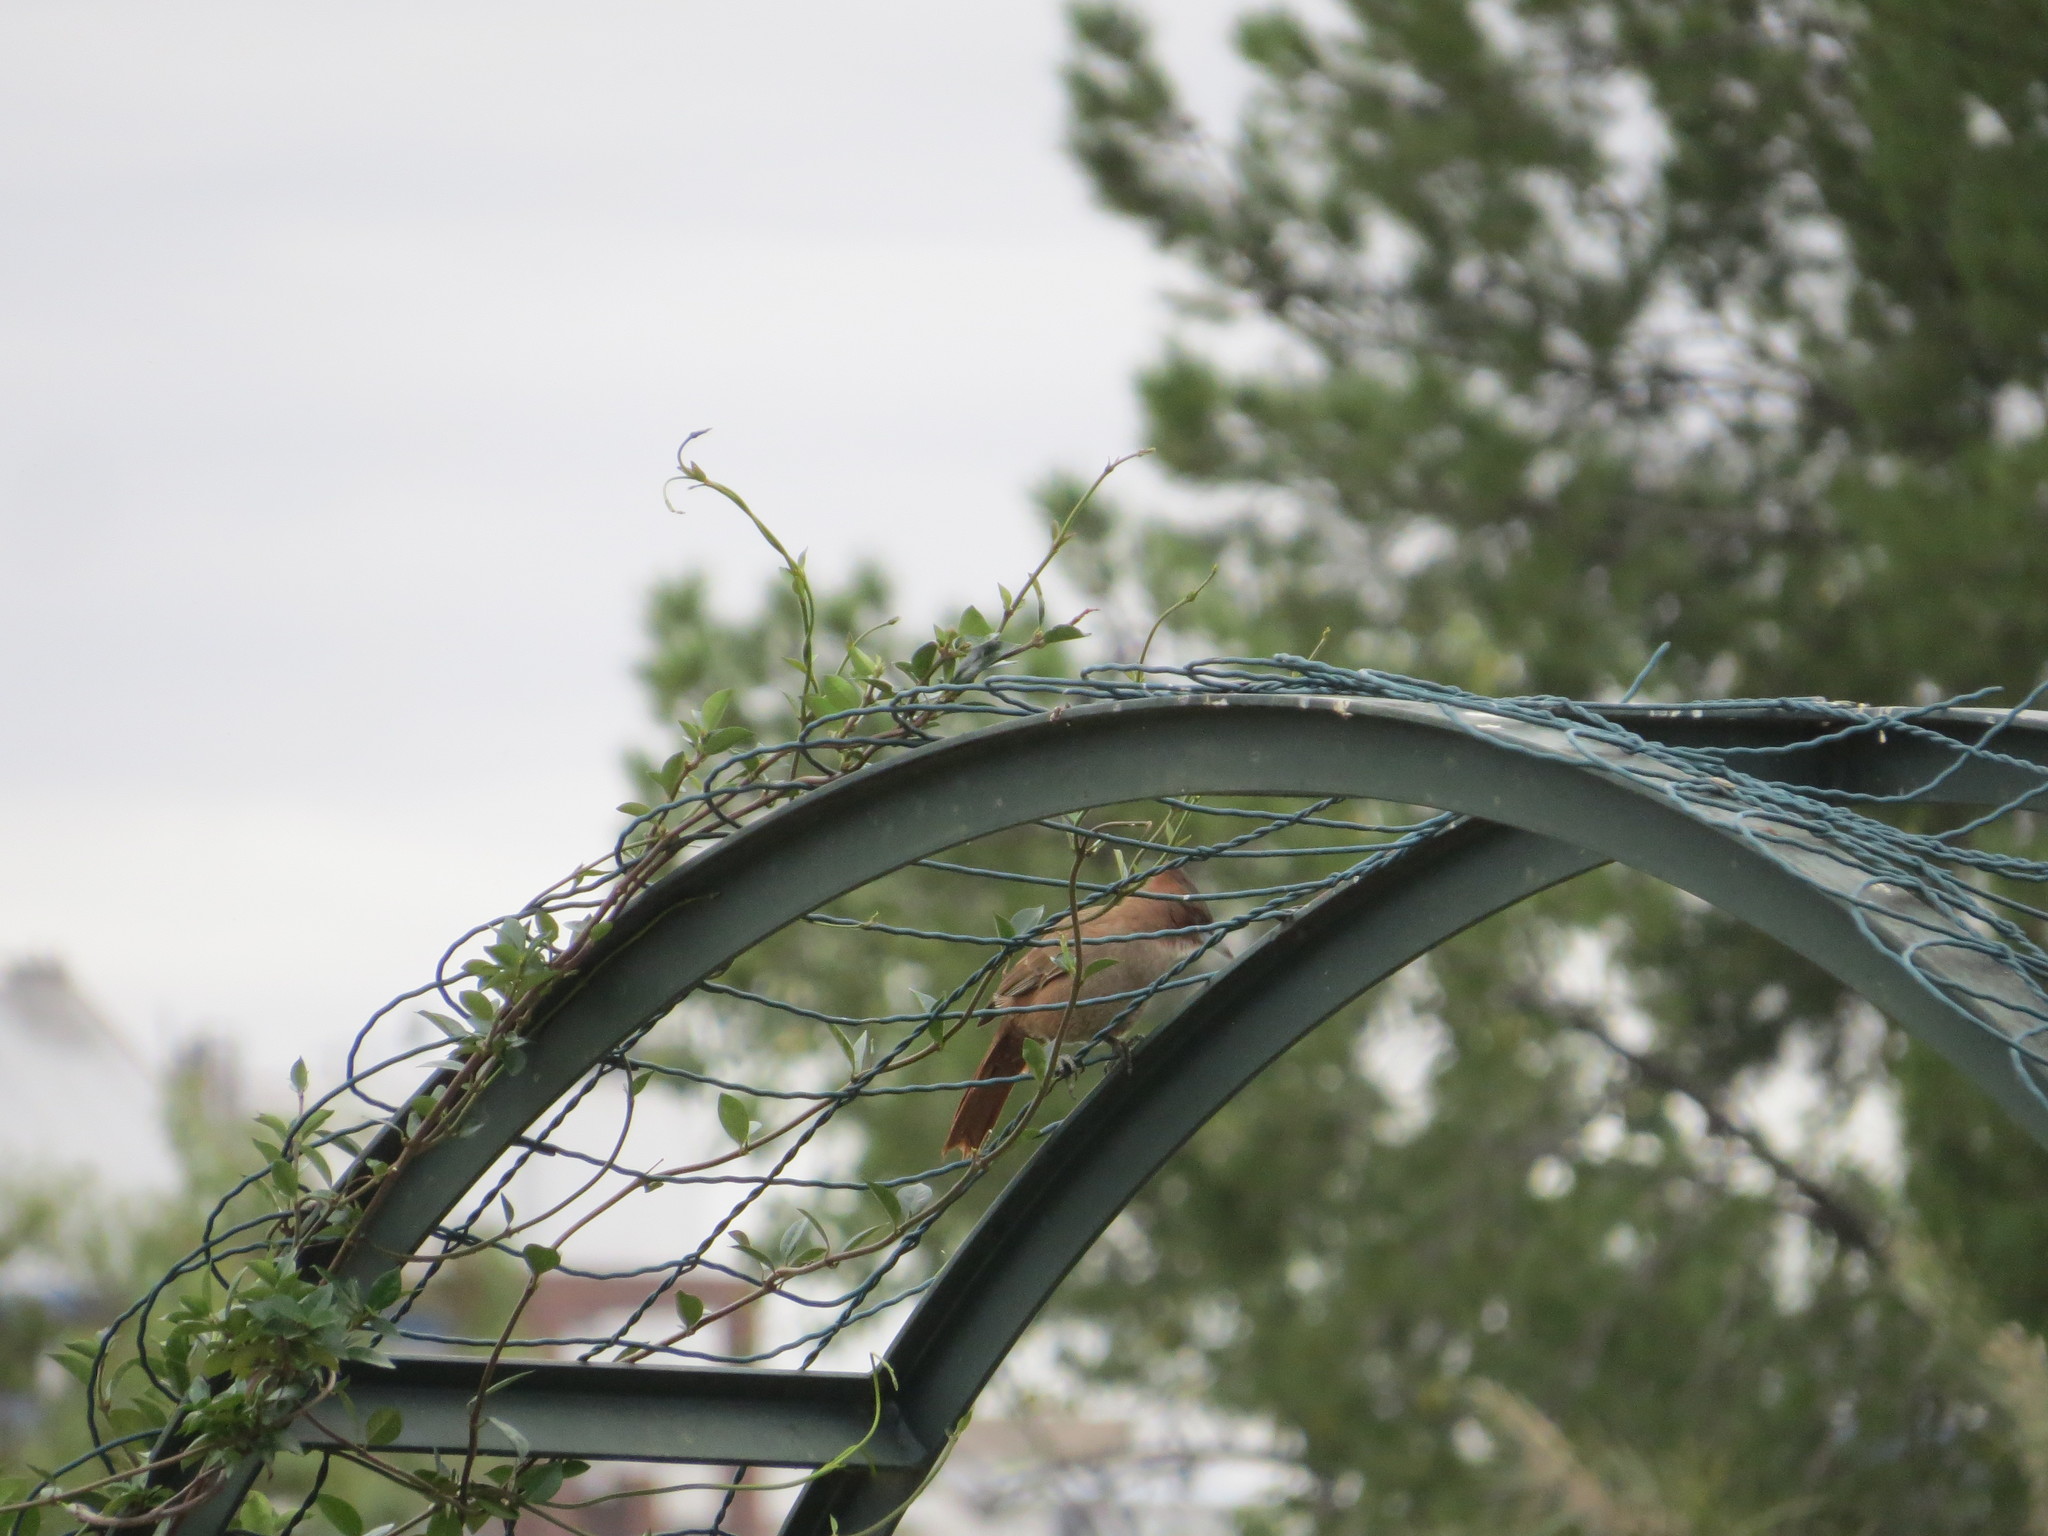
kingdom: Animalia
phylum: Chordata
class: Aves
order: Passeriformes
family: Furnariidae
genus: Pseudoseisura
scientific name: Pseudoseisura lophotes
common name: Brown cacholote
